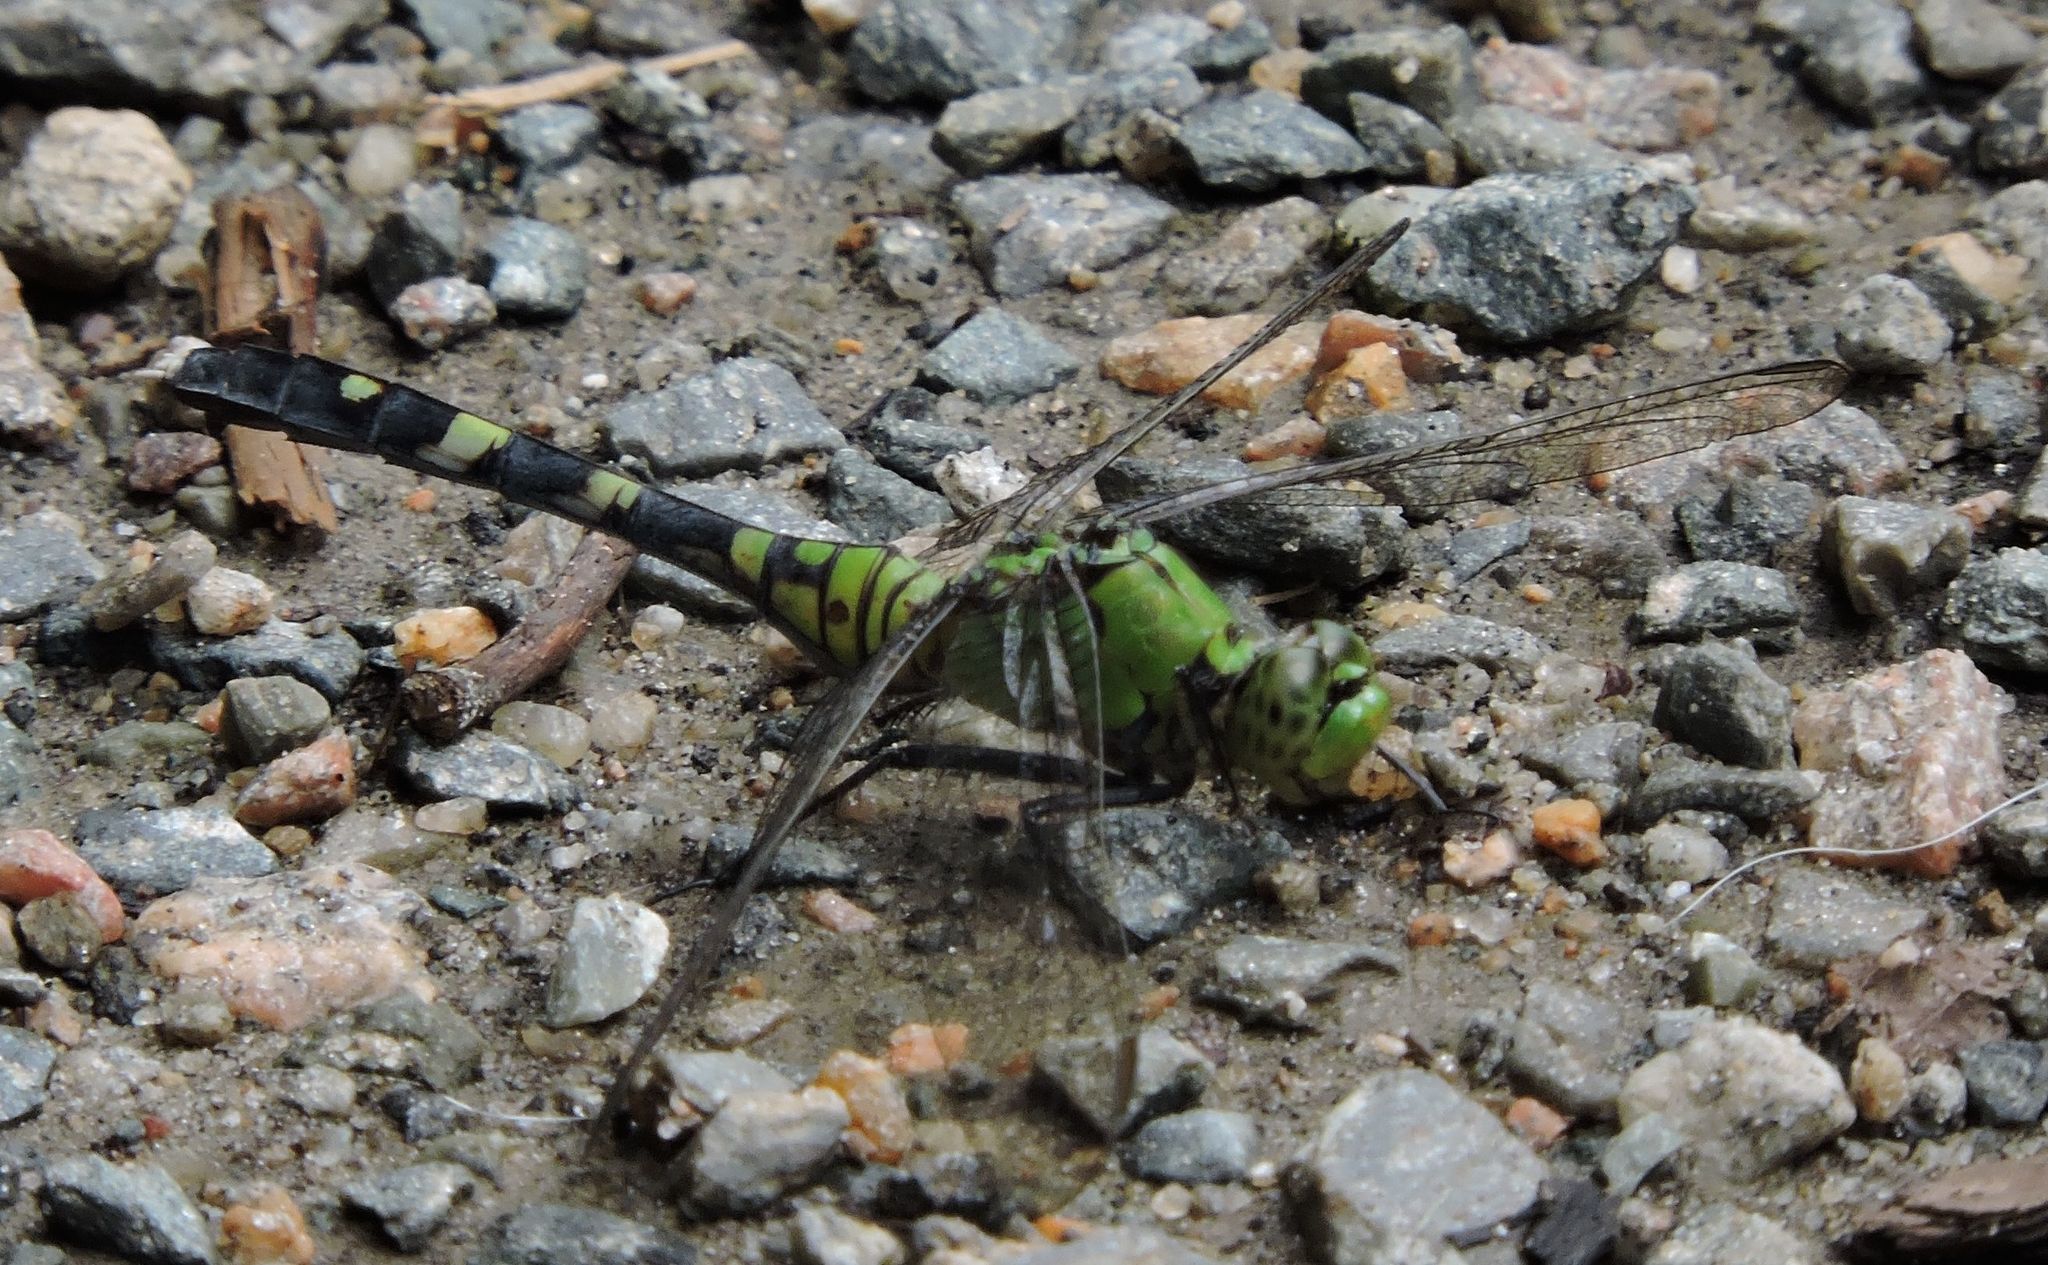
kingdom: Animalia
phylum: Arthropoda
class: Insecta
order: Odonata
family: Libellulidae
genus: Erythemis
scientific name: Erythemis simplicicollis
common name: Eastern pondhawk
